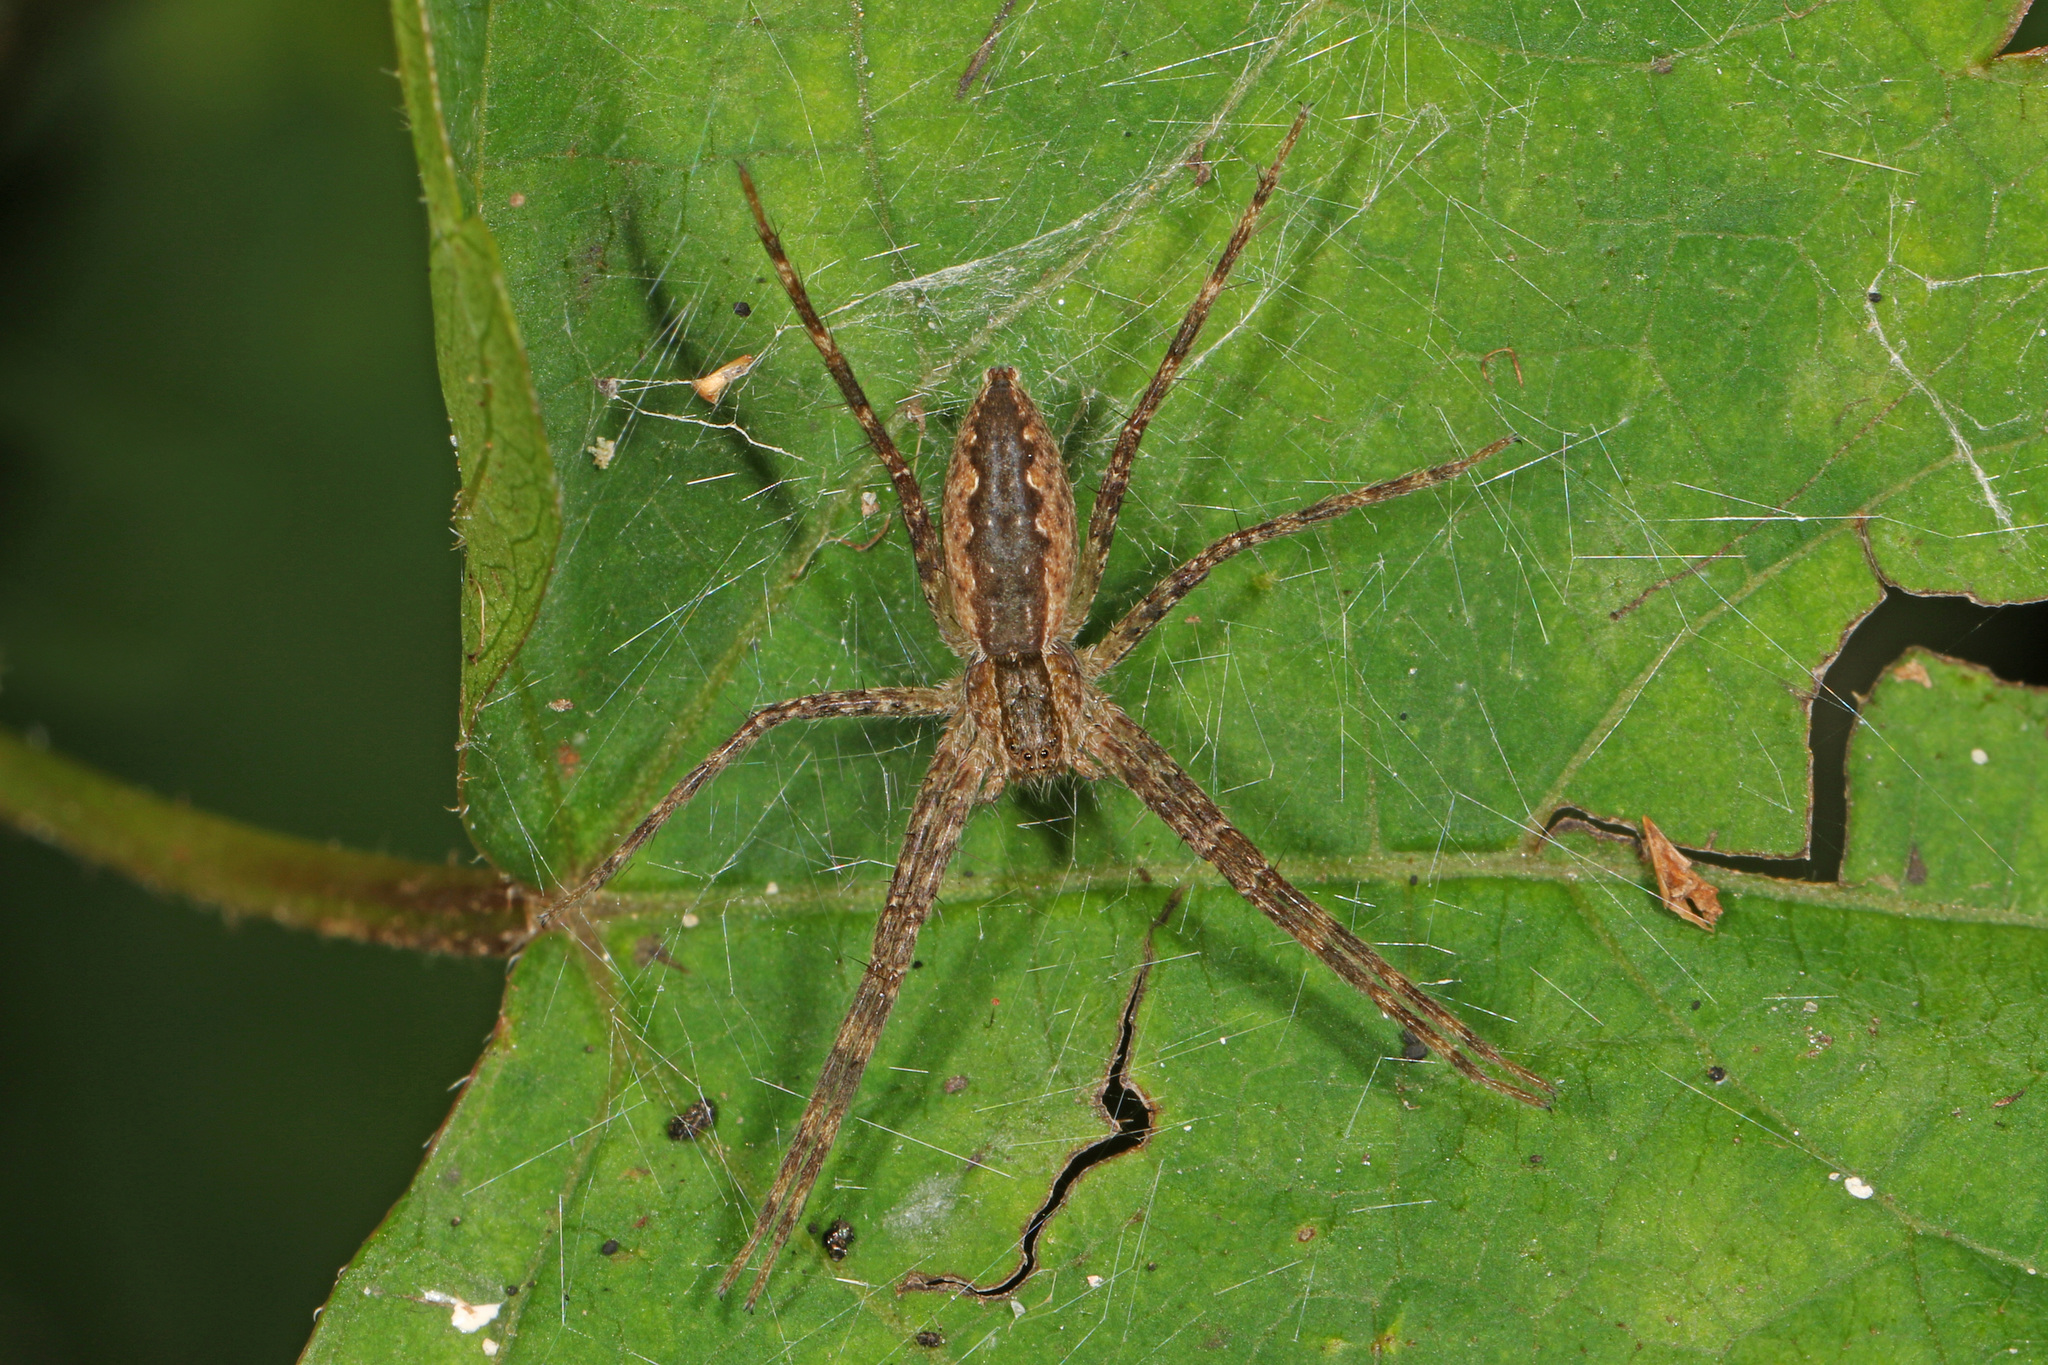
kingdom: Animalia
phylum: Arthropoda
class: Arachnida
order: Araneae
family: Pisauridae
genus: Pisaurina
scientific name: Pisaurina mira
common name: American nursery web spider
